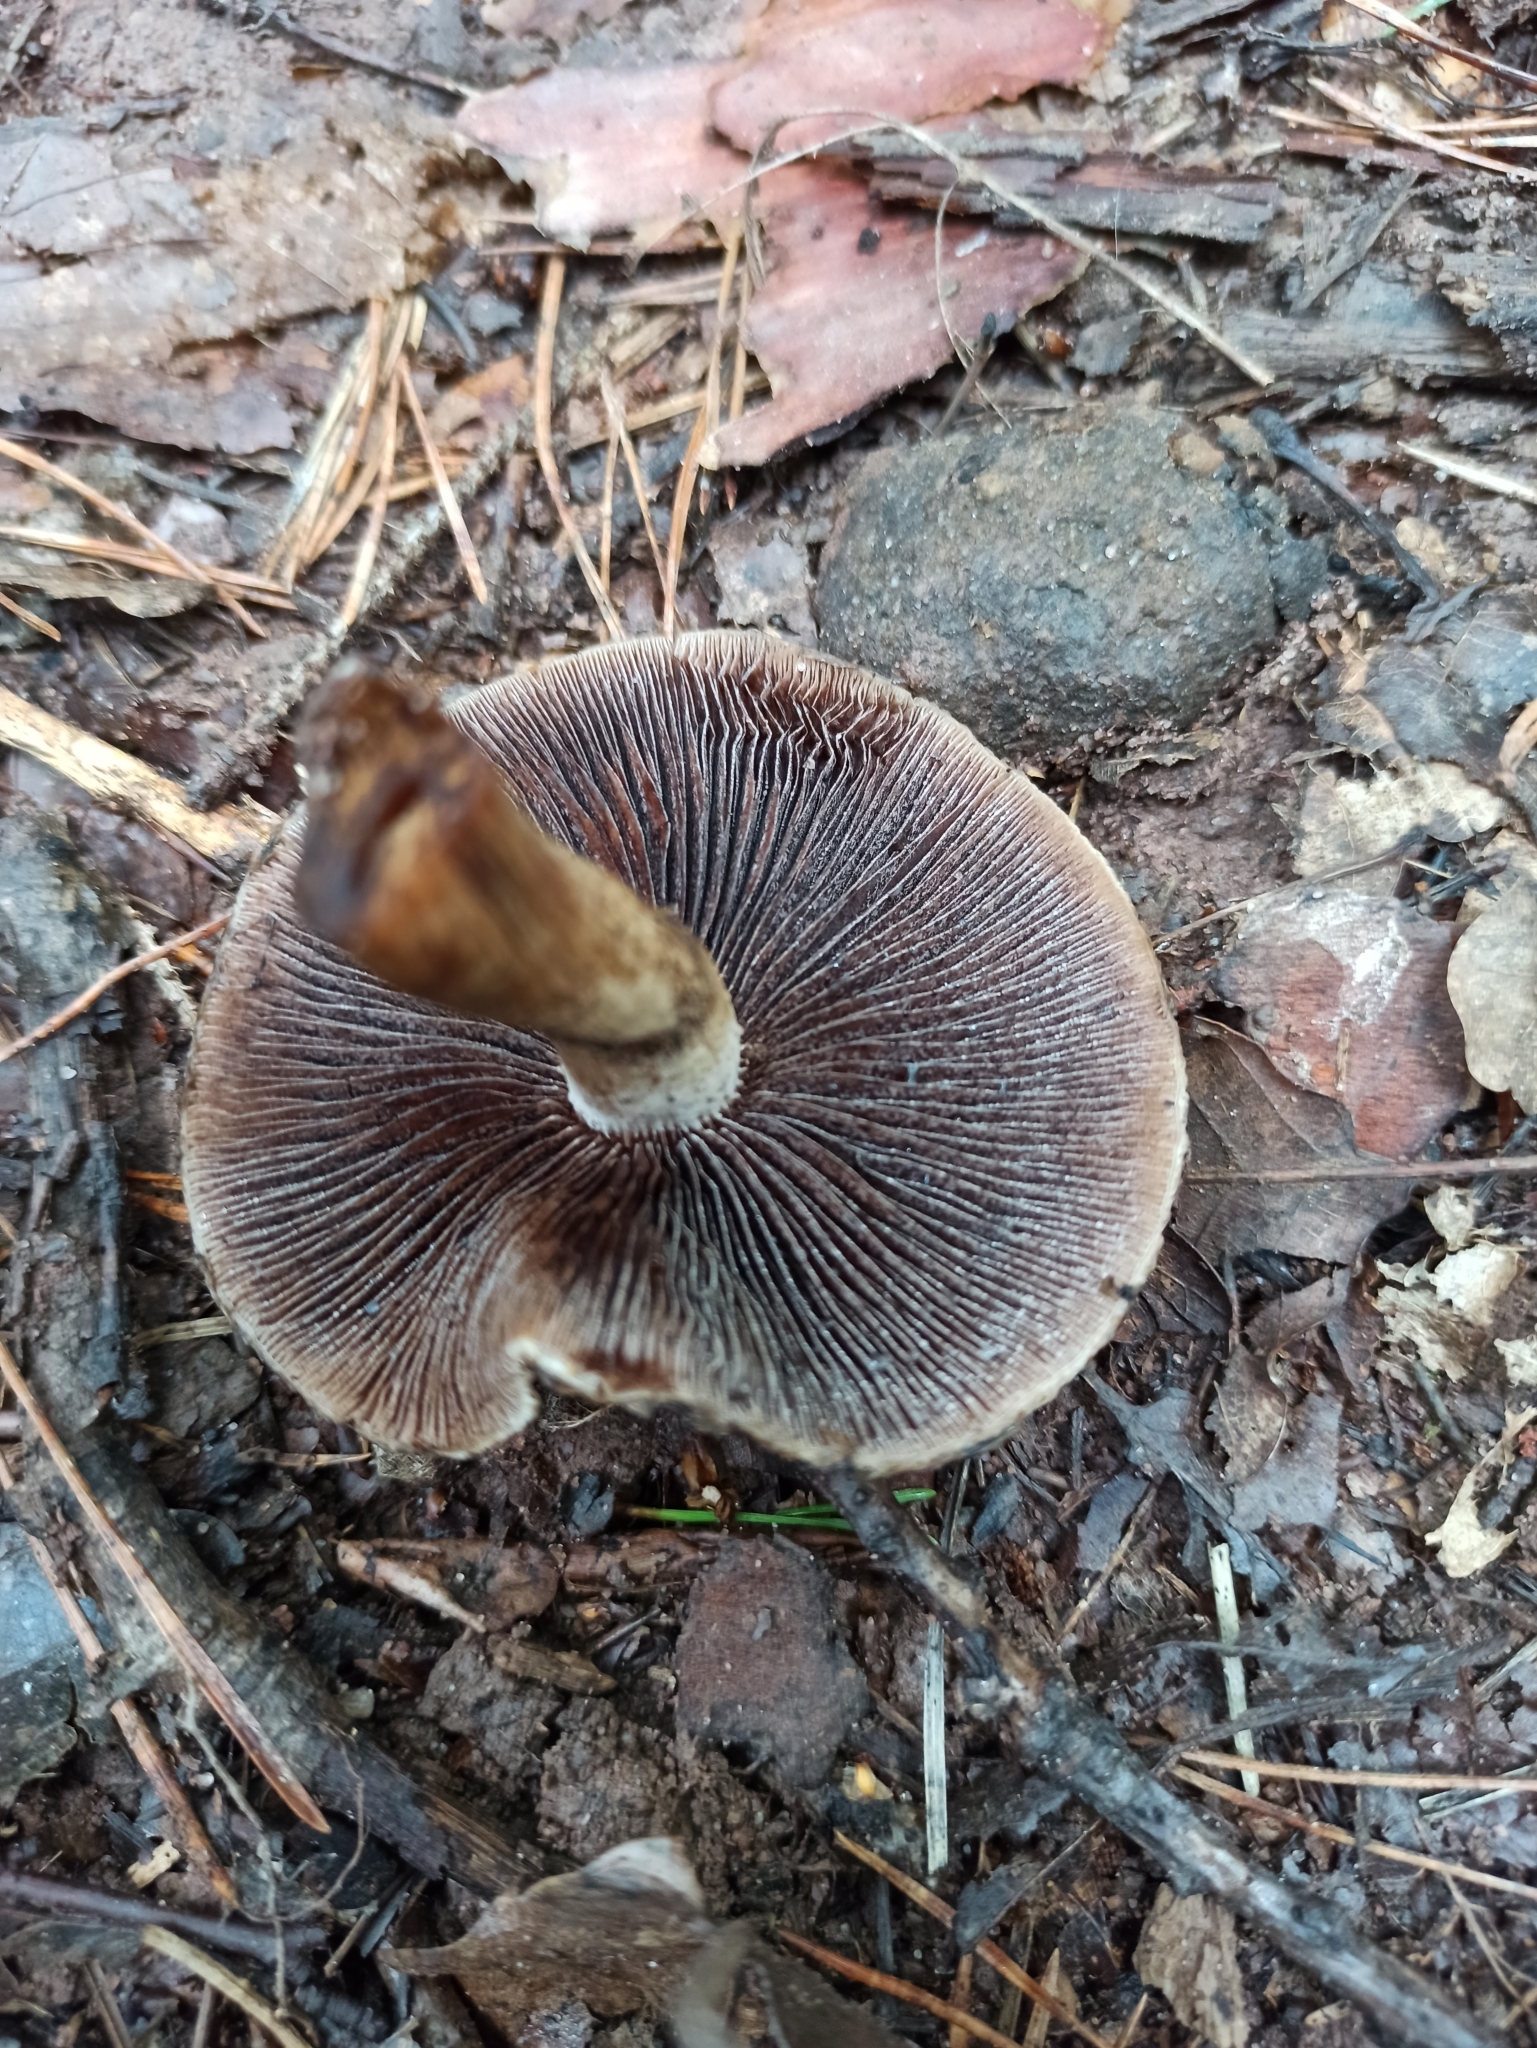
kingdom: Fungi
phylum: Basidiomycota
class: Agaricomycetes
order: Agaricales
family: Psathyrellaceae
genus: Lacrymaria
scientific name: Lacrymaria lacrymabunda
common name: Weeping widow
